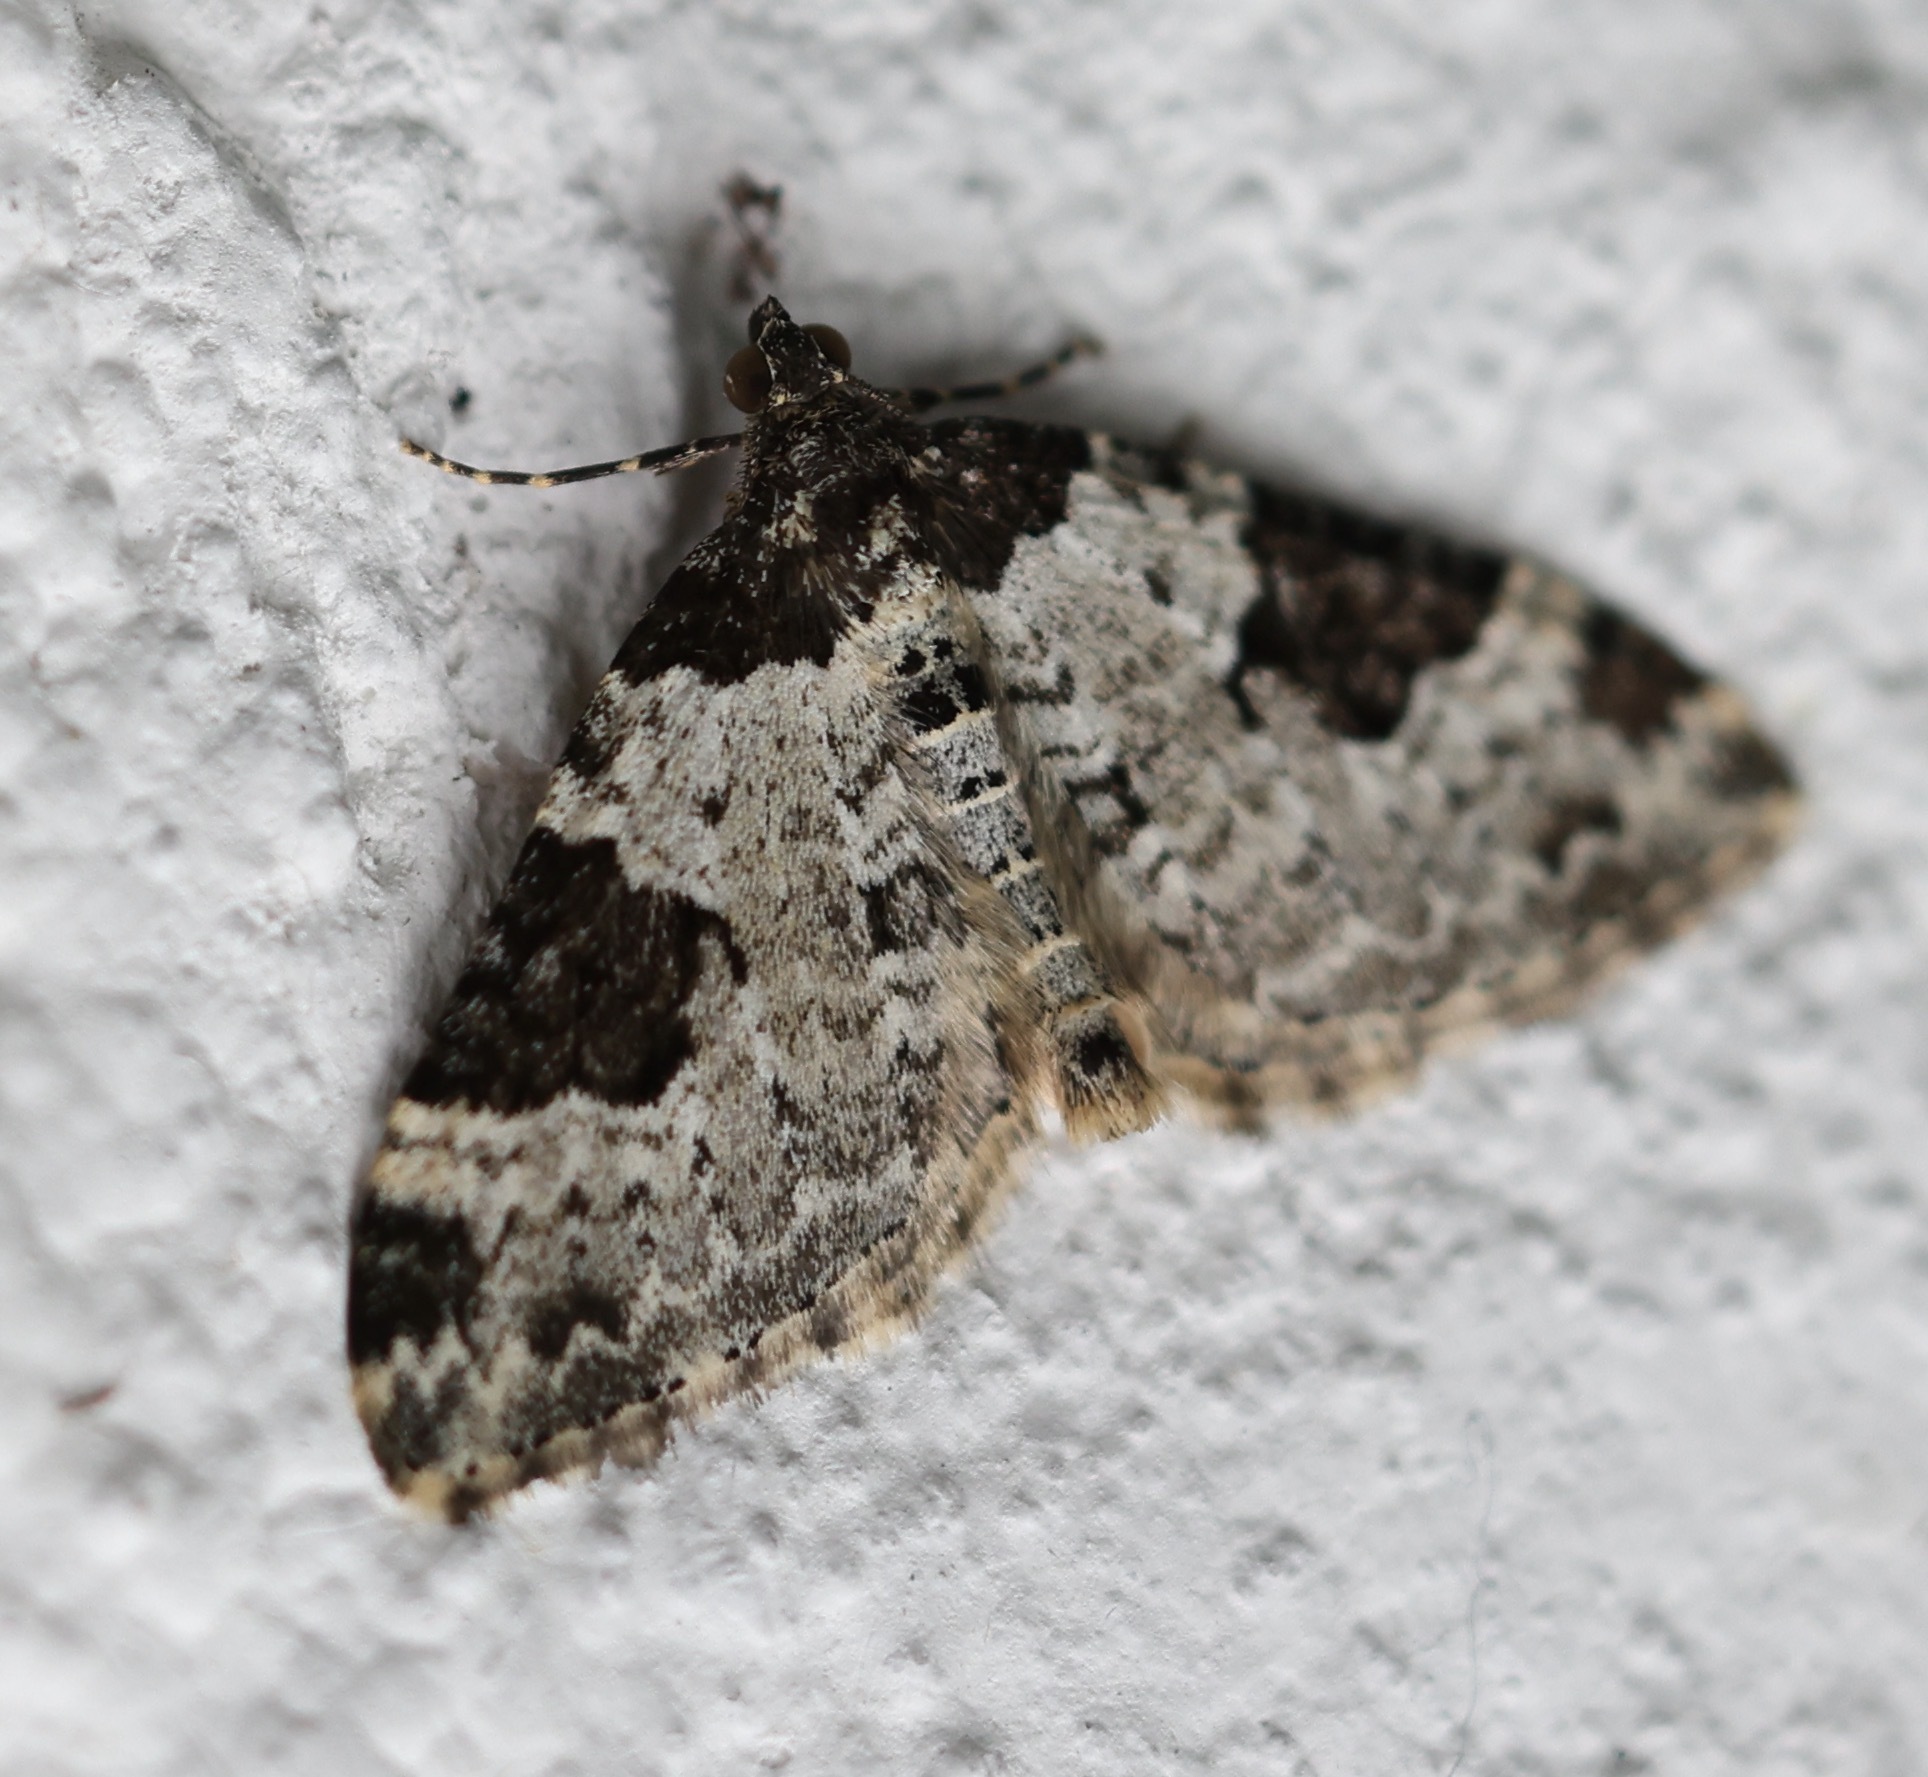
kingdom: Animalia
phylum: Arthropoda
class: Insecta
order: Lepidoptera
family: Geometridae
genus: Xanthorhoe
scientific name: Xanthorhoe fluctuata
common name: Garden carpet
